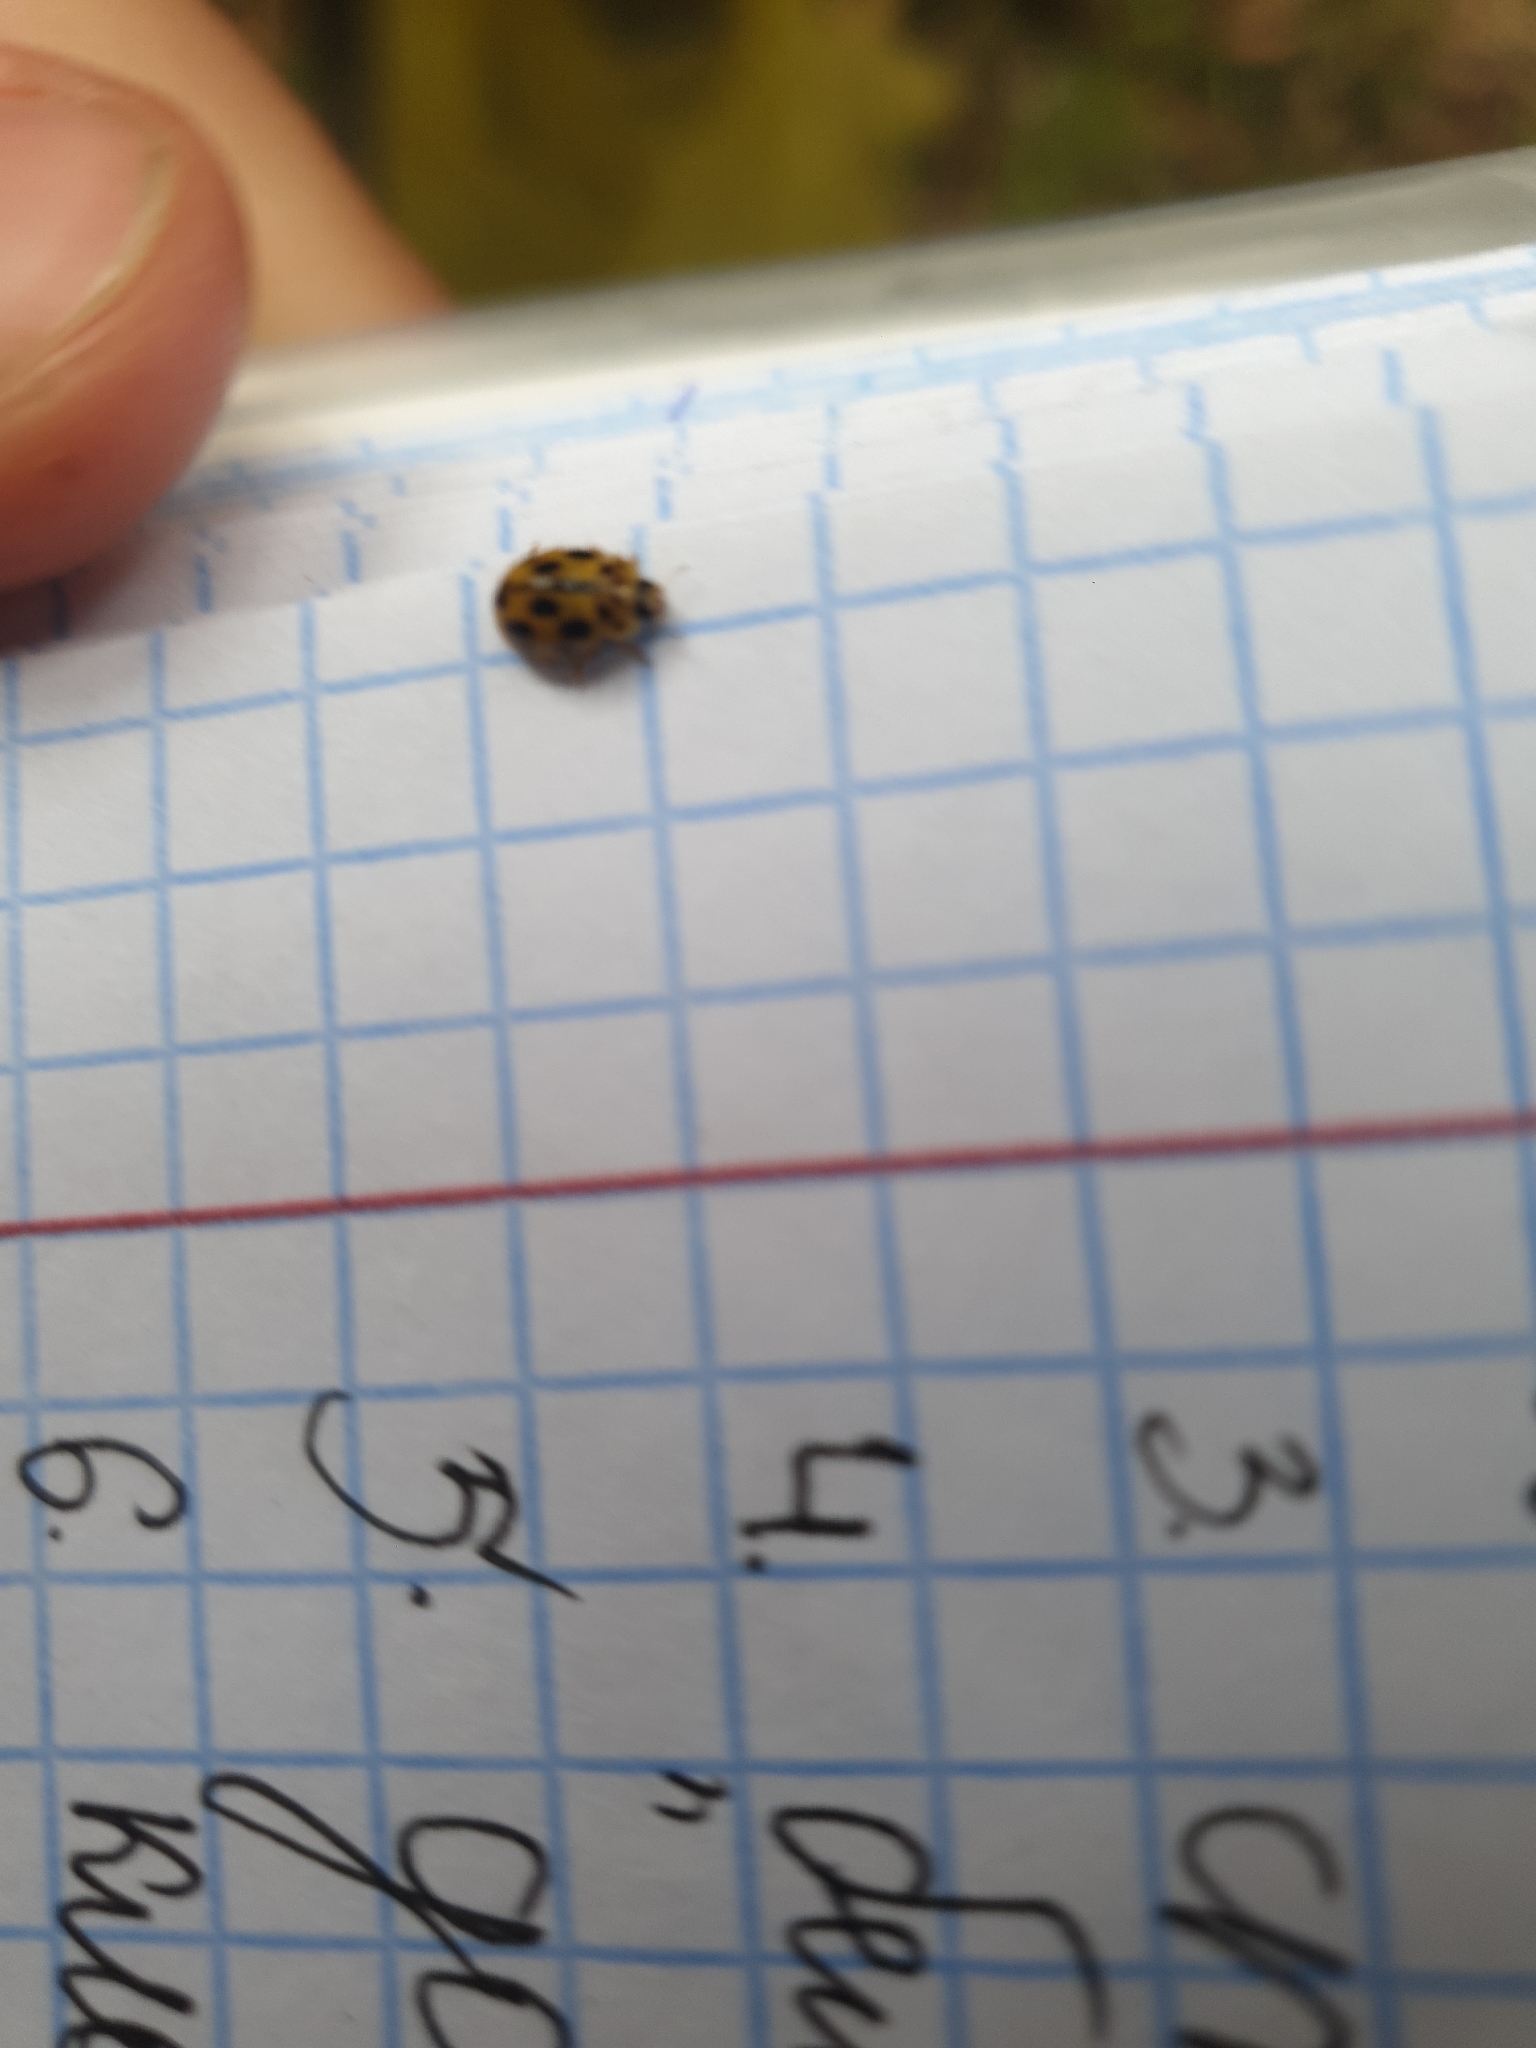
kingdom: Animalia
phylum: Arthropoda
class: Insecta
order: Coleoptera
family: Coccinellidae
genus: Propylaea
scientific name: Propylaea quatuordecimpunctata
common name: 14-spotted ladybird beetle
